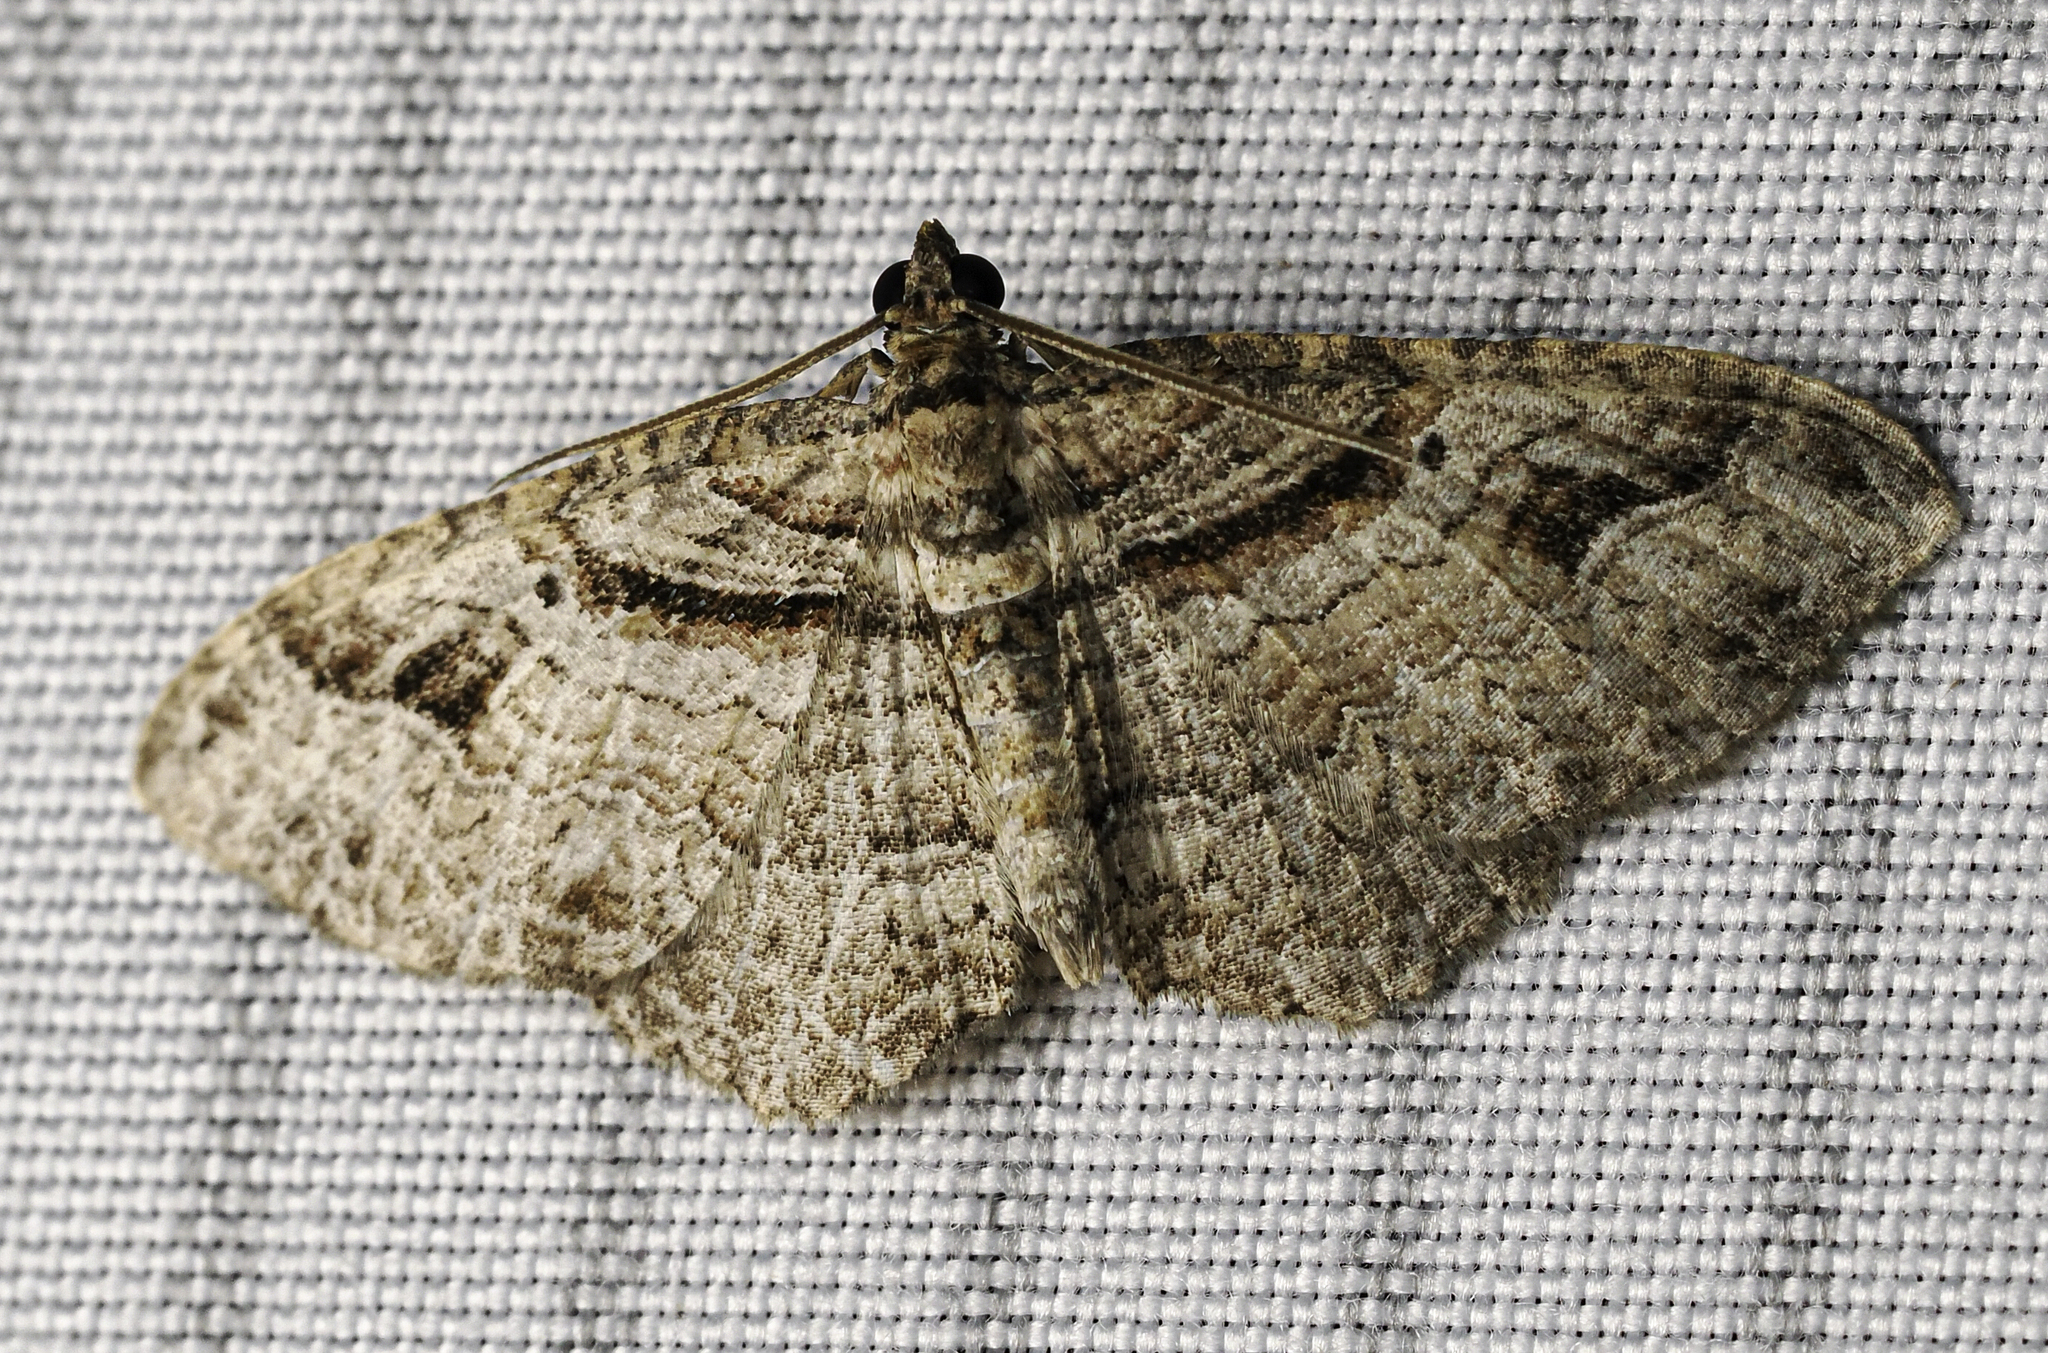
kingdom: Animalia
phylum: Arthropoda
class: Insecta
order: Lepidoptera
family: Geometridae
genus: Costaconvexa
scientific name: Costaconvexa centrostrigaria
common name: Bent-line carpet
